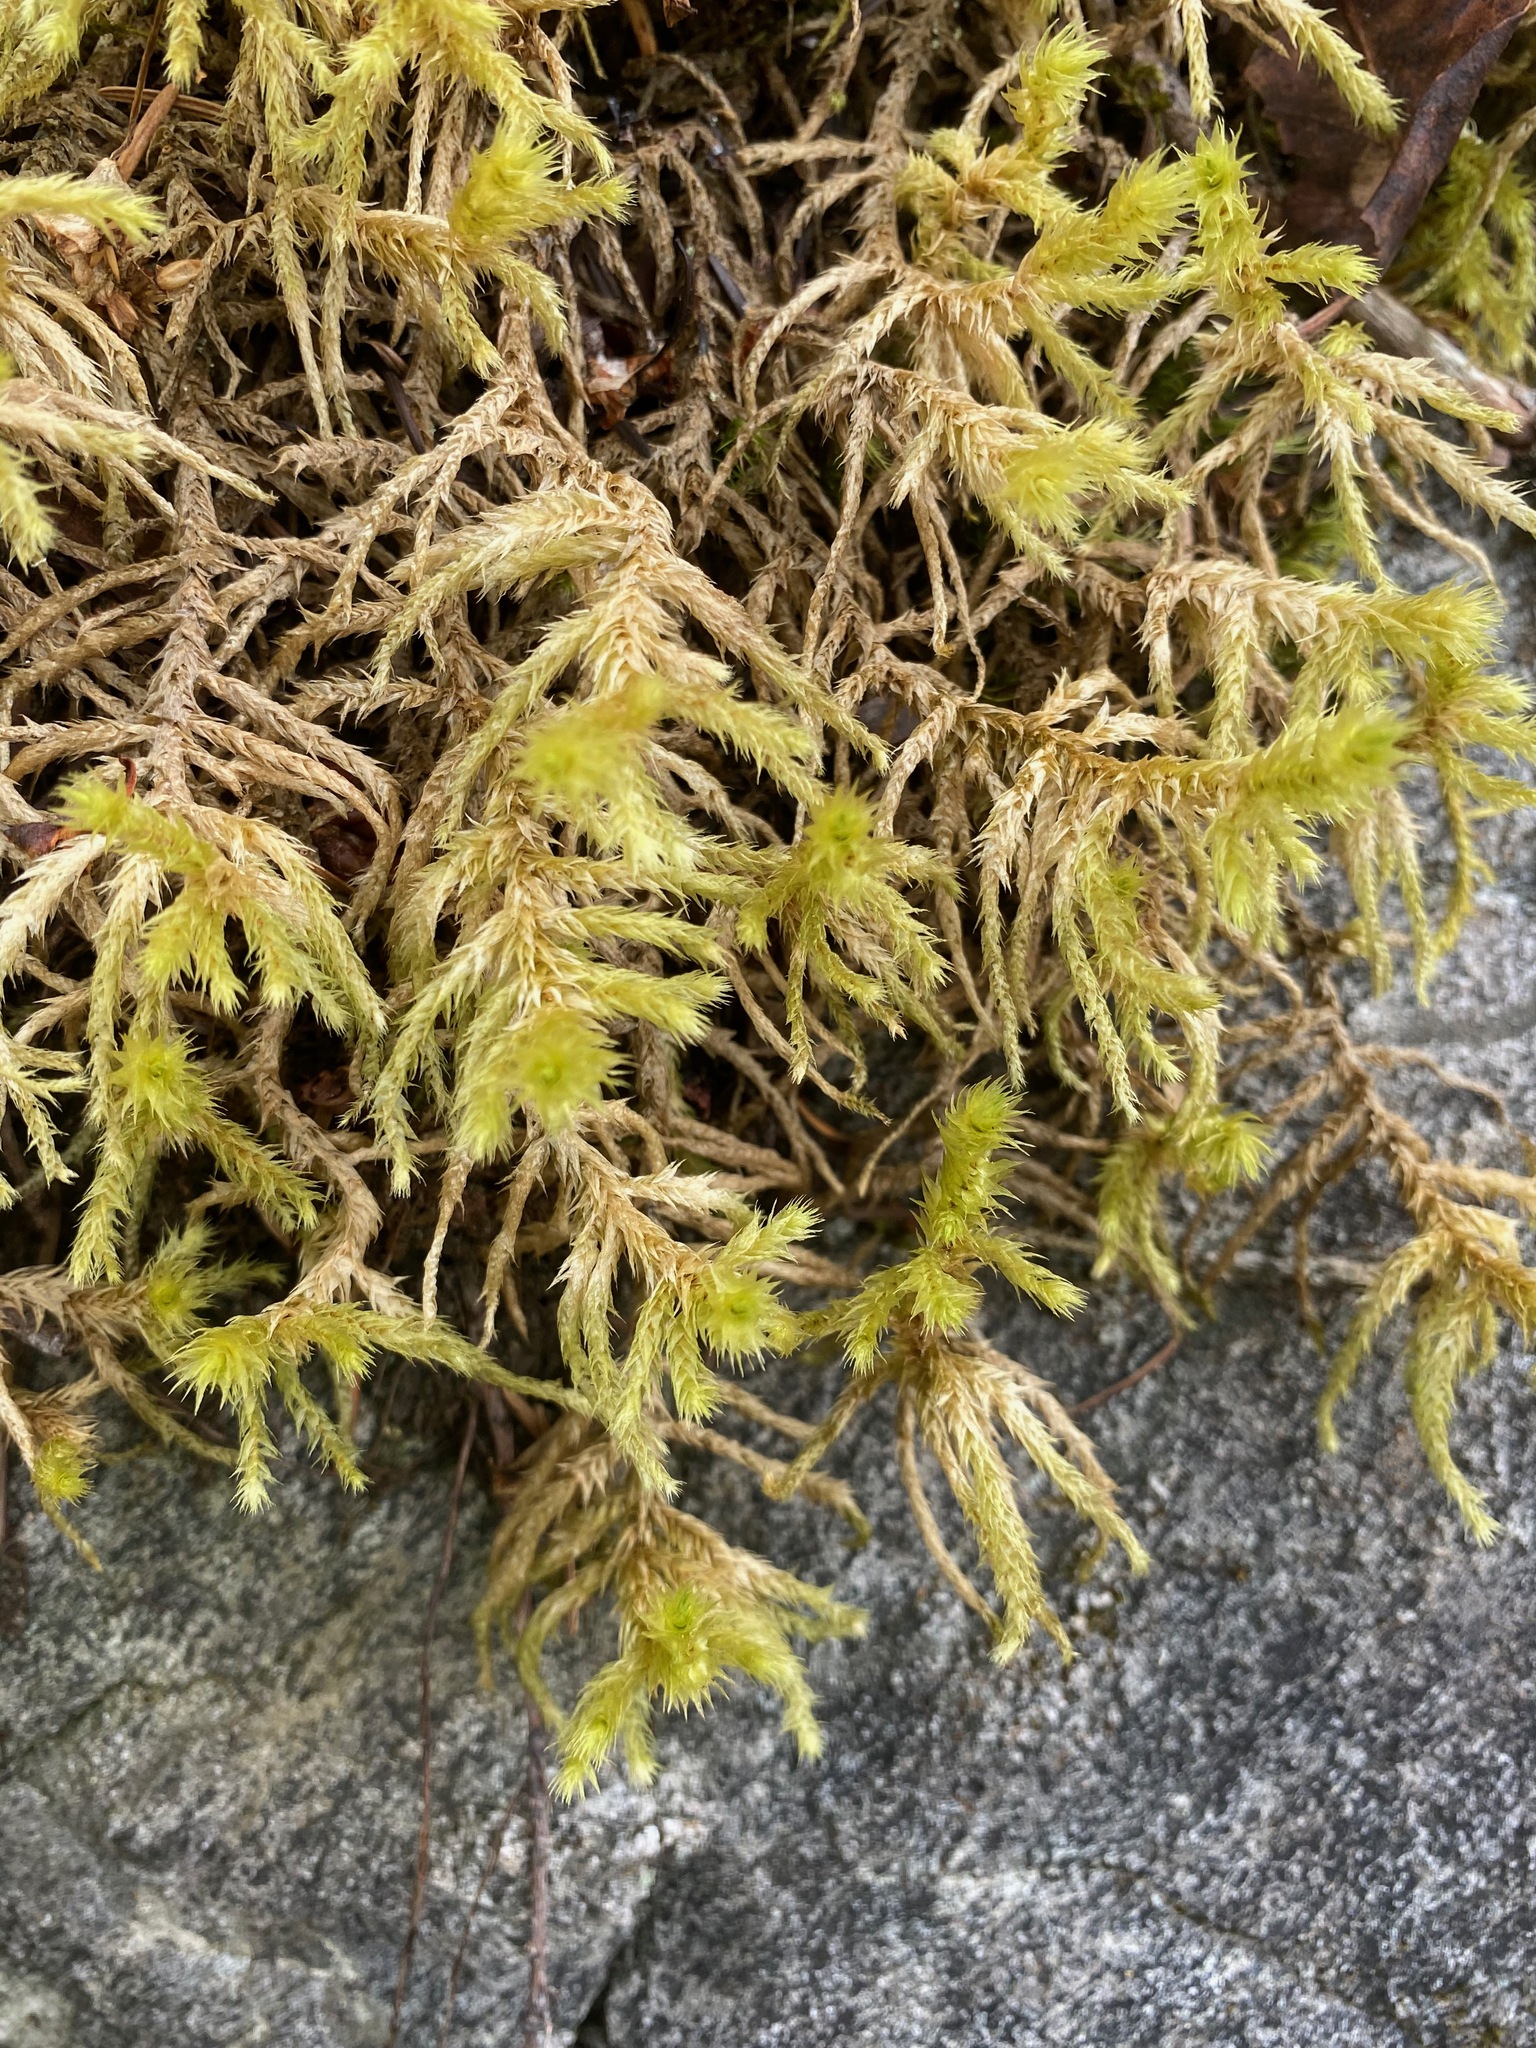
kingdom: Plantae
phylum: Bryophyta
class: Bryopsida
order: Hypnales
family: Hylocomiaceae
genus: Hylocomiadelphus
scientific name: Hylocomiadelphus triquetrus
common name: Rough goose neck moss
